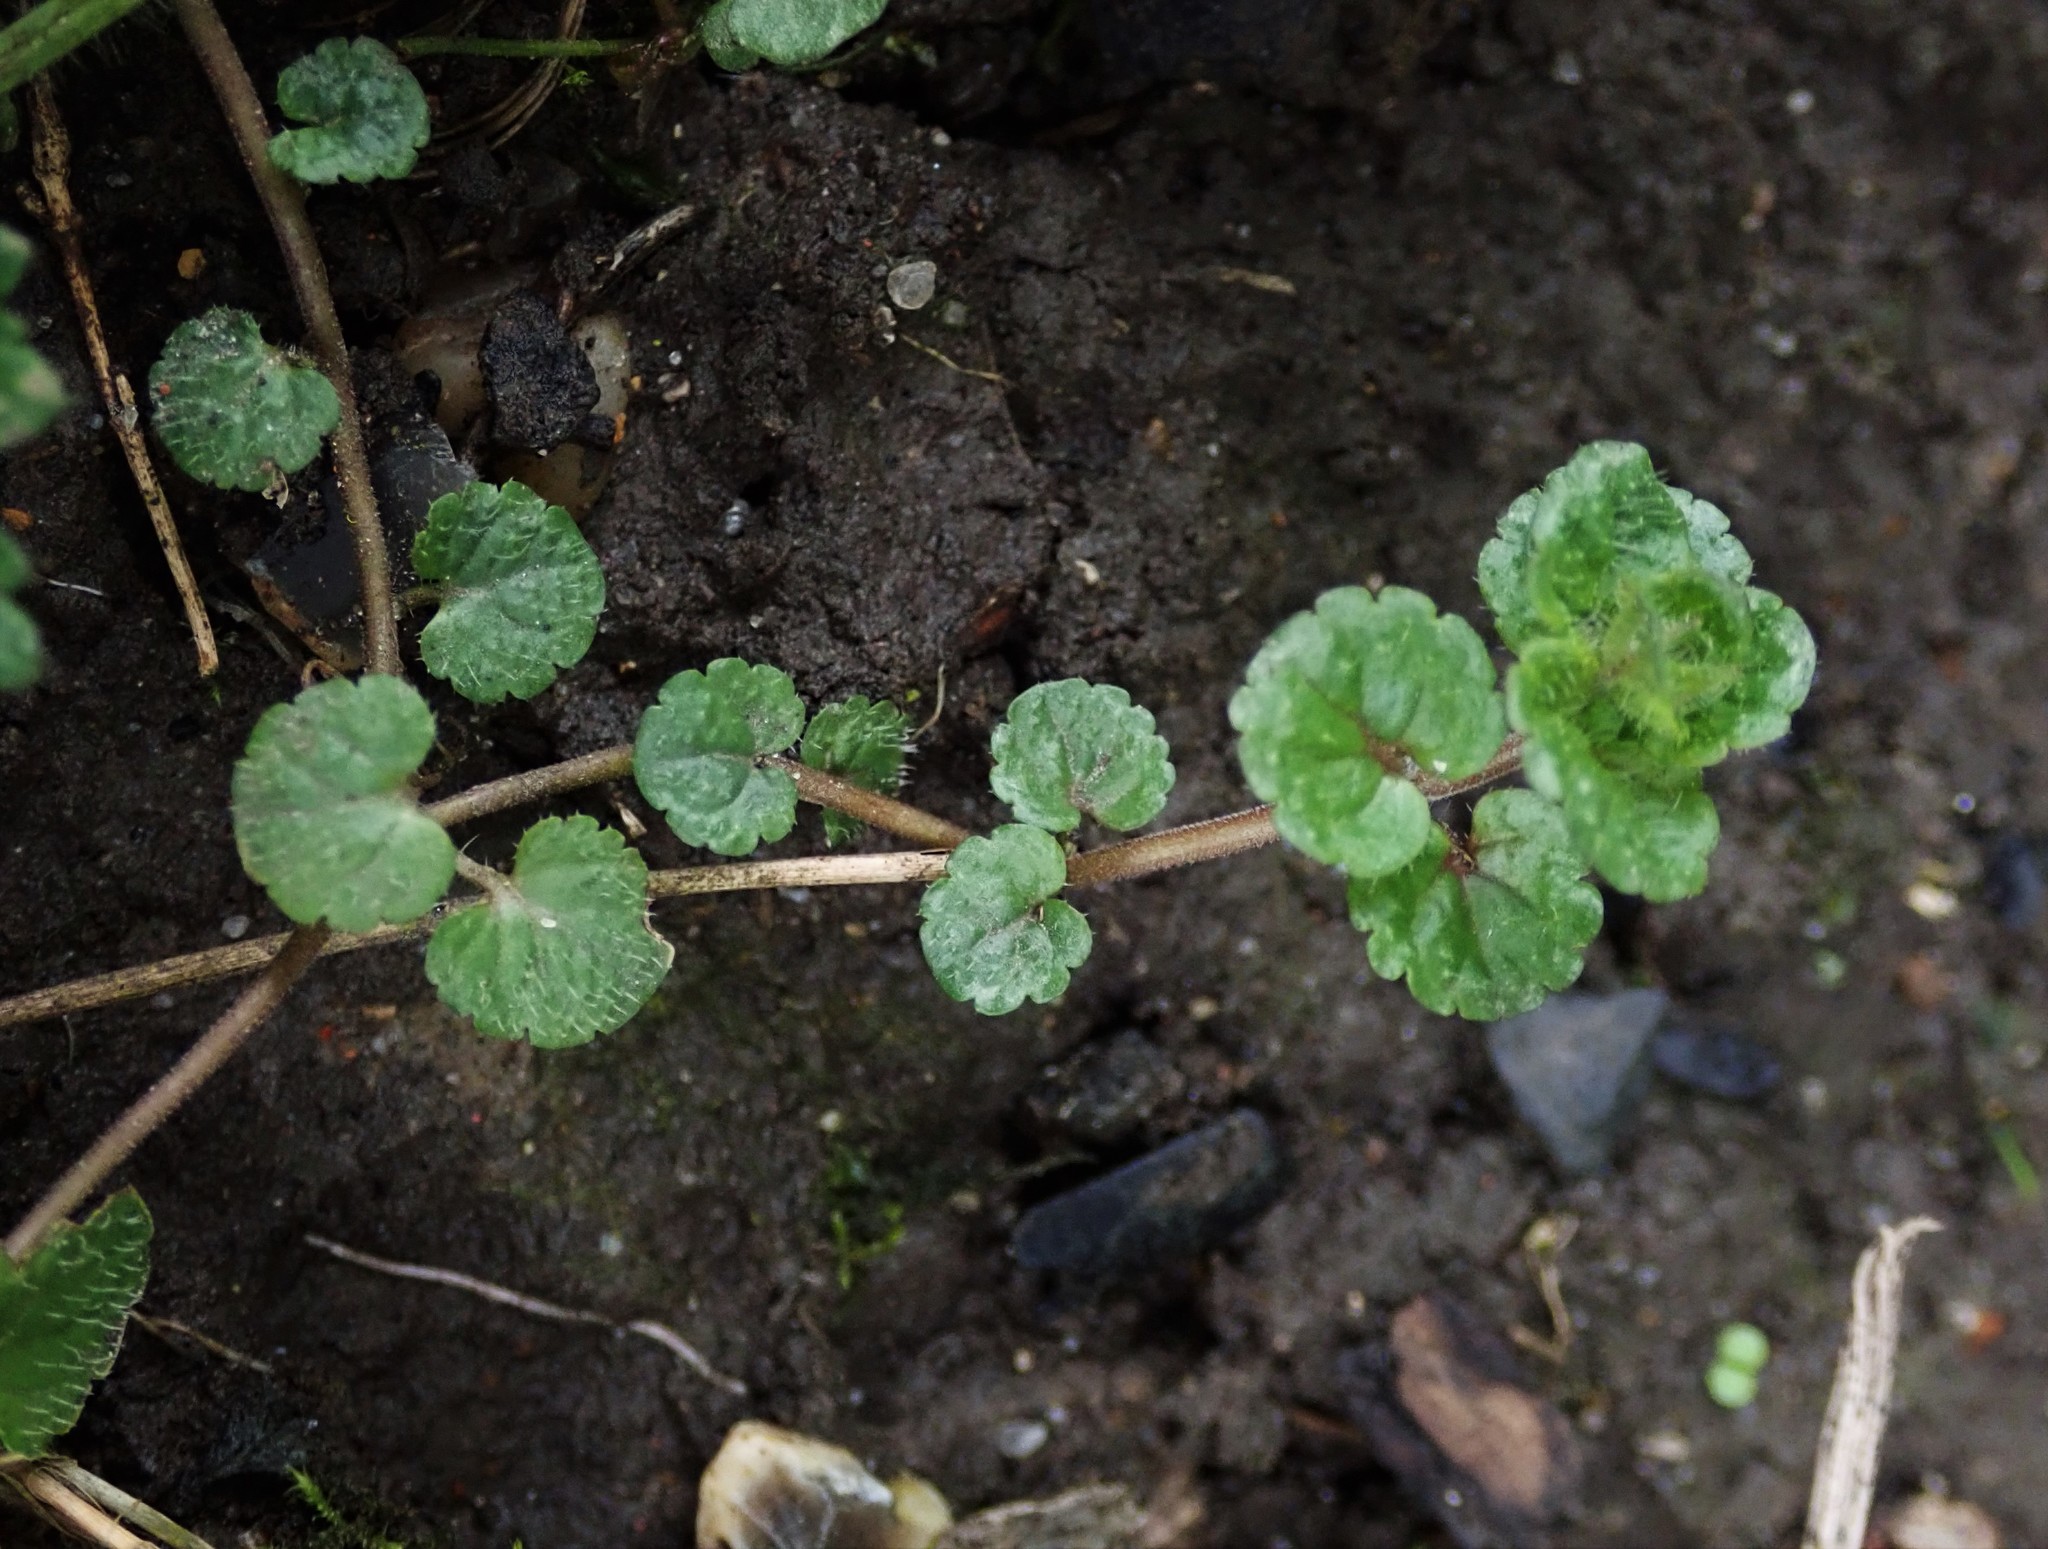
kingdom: Plantae
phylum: Tracheophyta
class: Magnoliopsida
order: Lamiales
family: Plantaginaceae
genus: Veronica
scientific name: Veronica filiformis
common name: Slender speedwell
